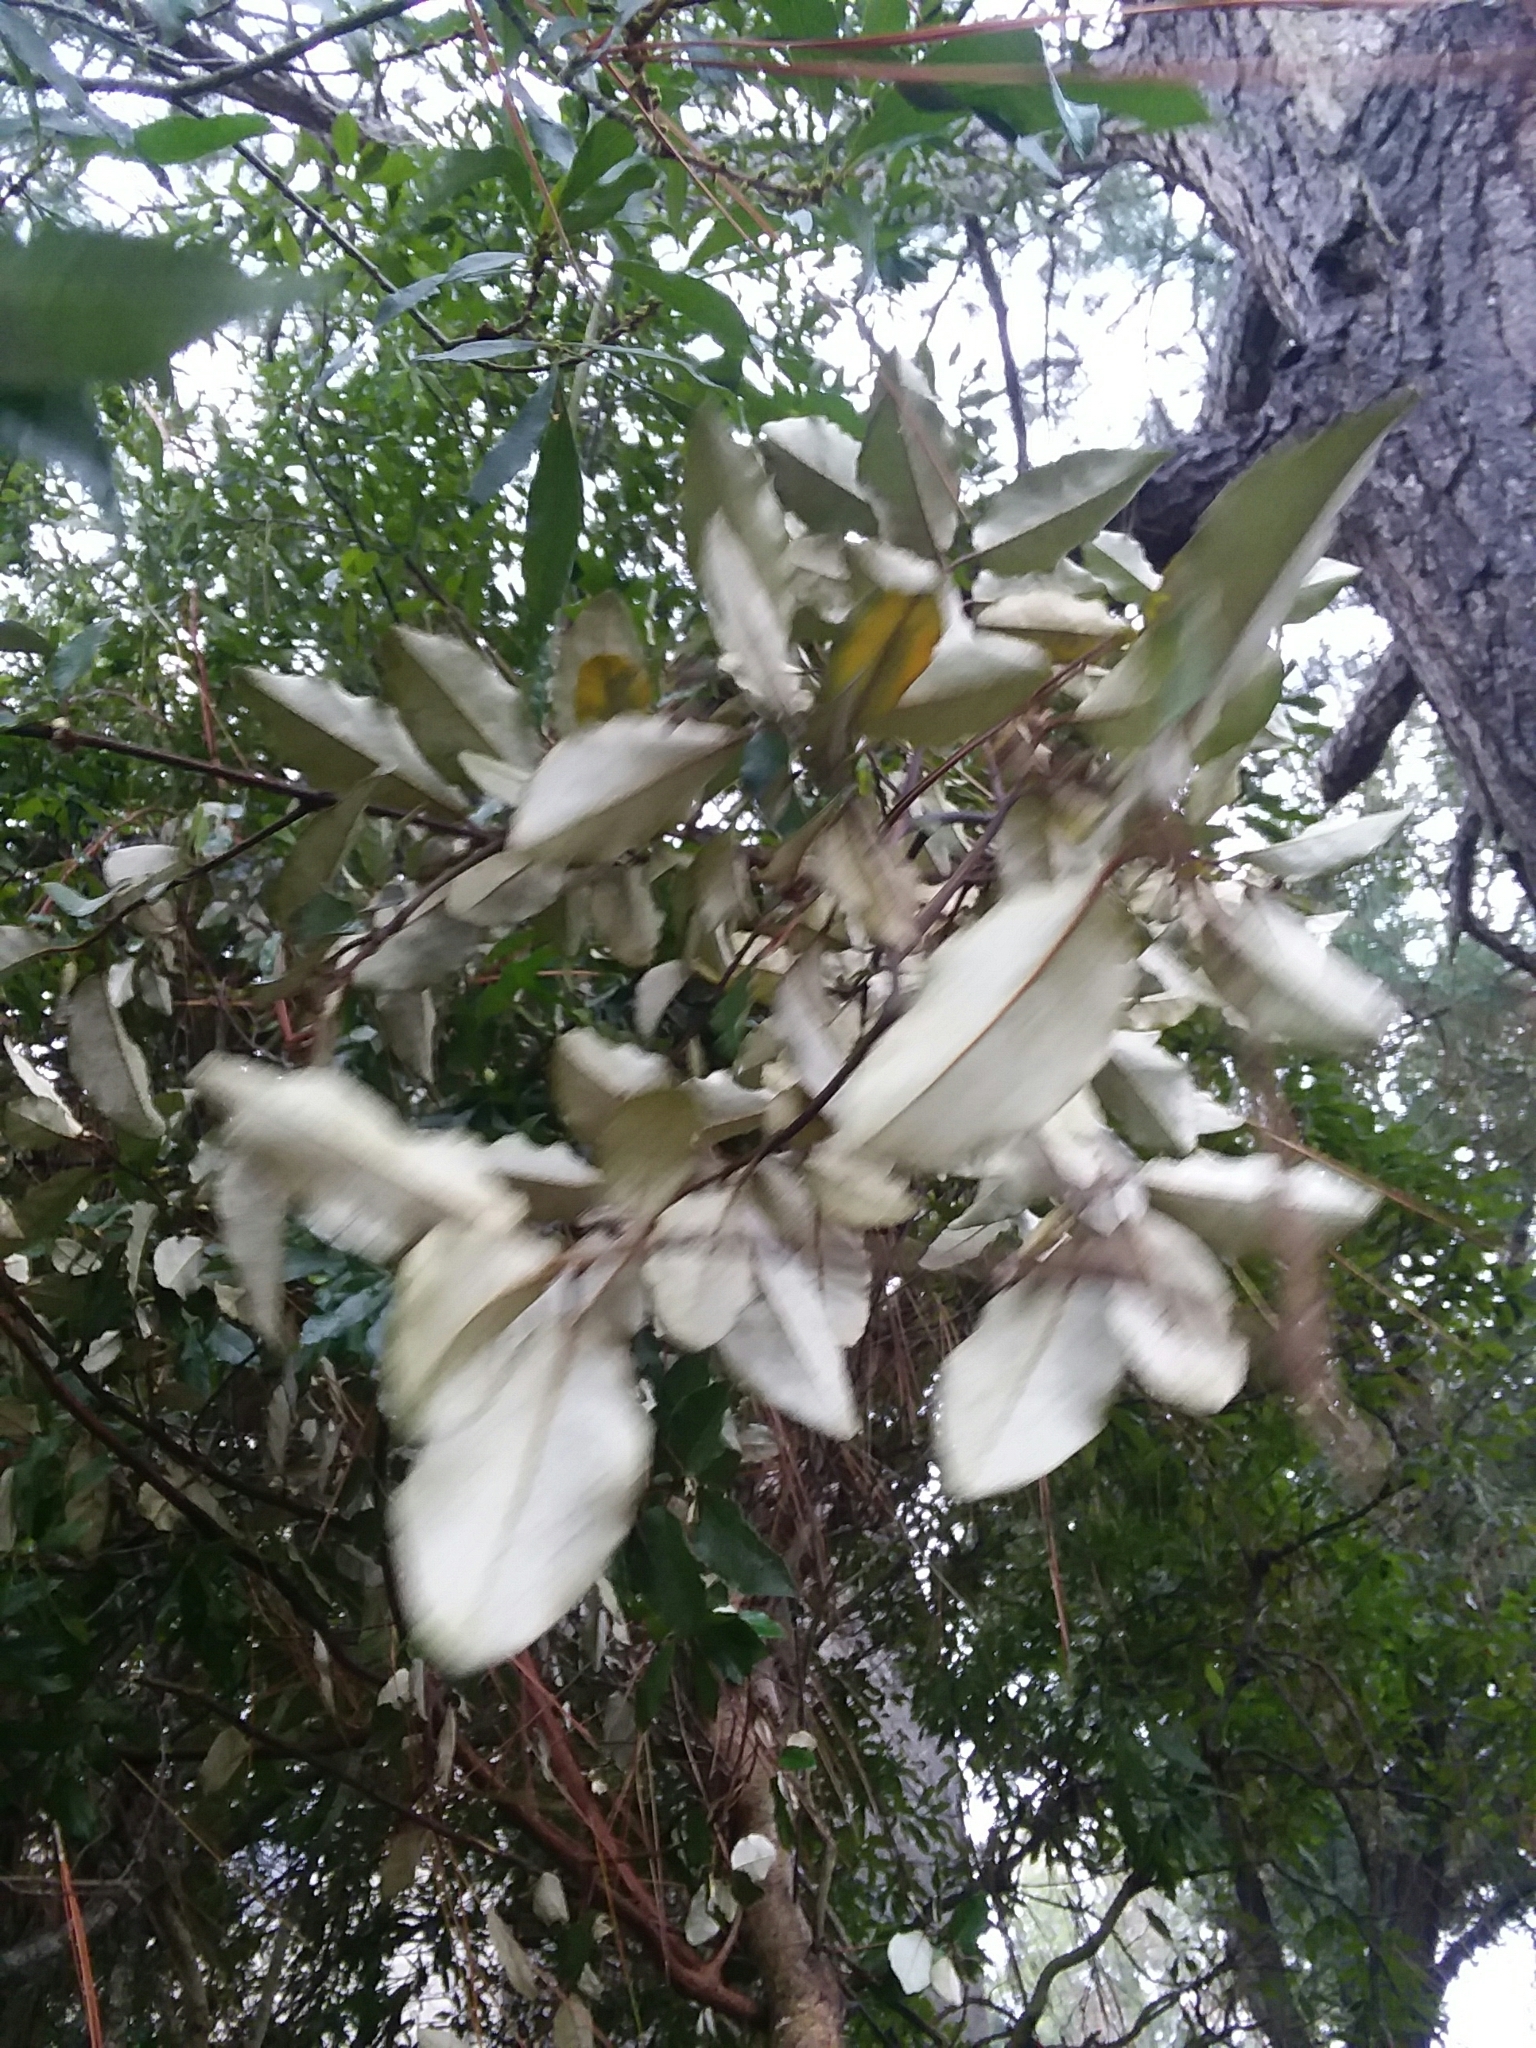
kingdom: Plantae
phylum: Tracheophyta
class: Magnoliopsida
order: Rosales
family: Elaeagnaceae
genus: Elaeagnus
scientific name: Elaeagnus pungens
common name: Spiny oleaster
